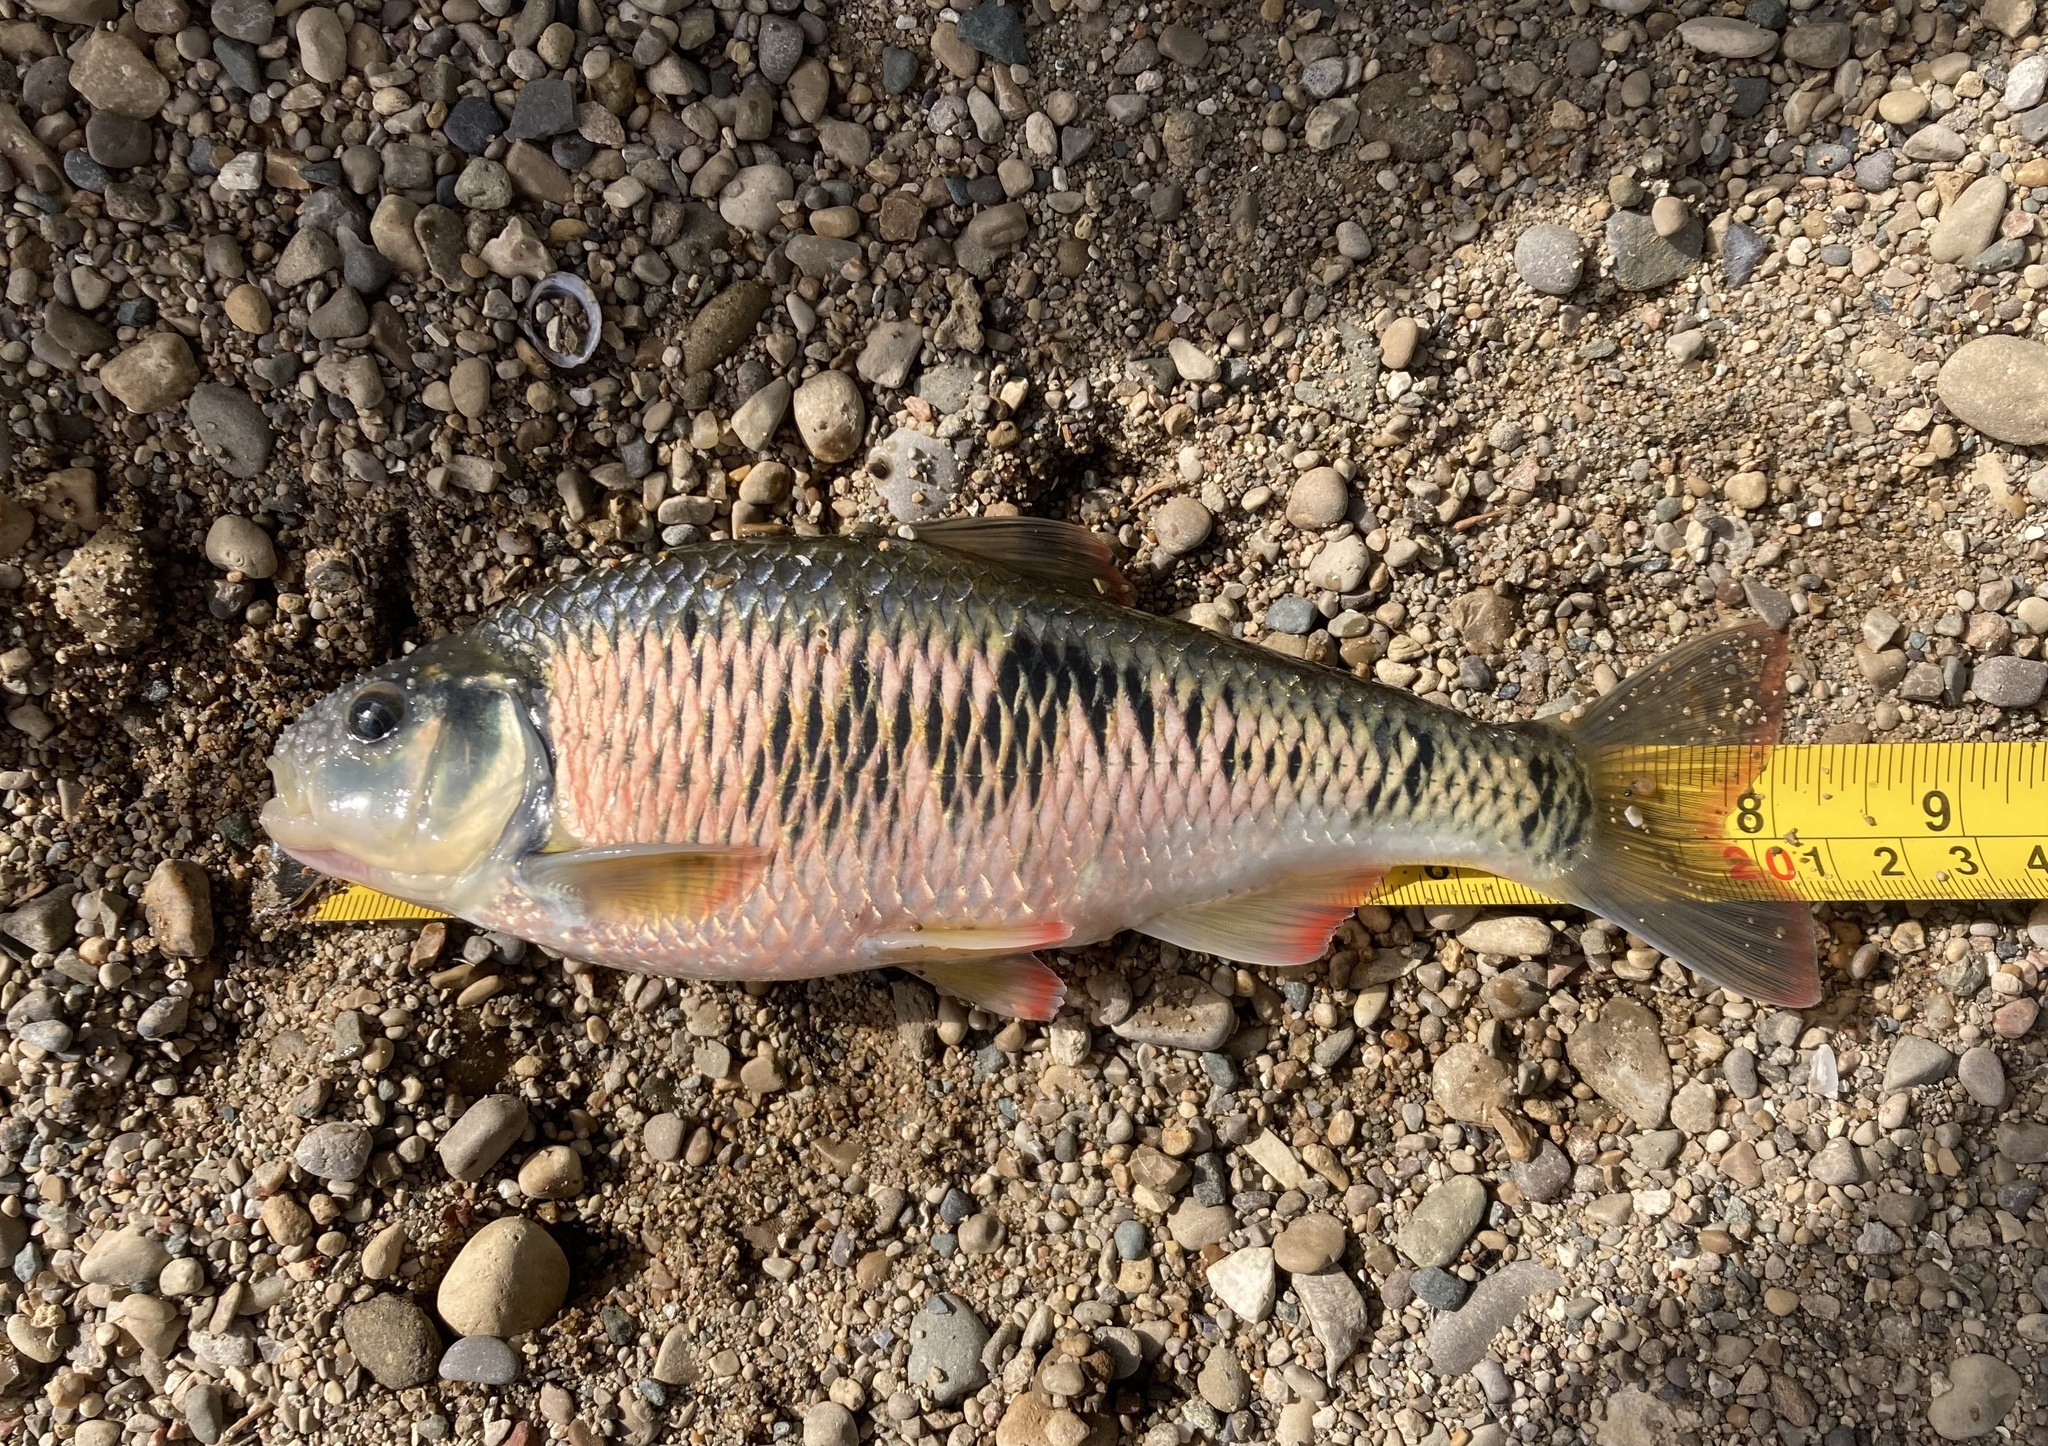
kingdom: Animalia
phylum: Chordata
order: Cypriniformes
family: Cyprinidae
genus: Luxilus
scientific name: Luxilus chrysocephalus
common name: Striped shiner
